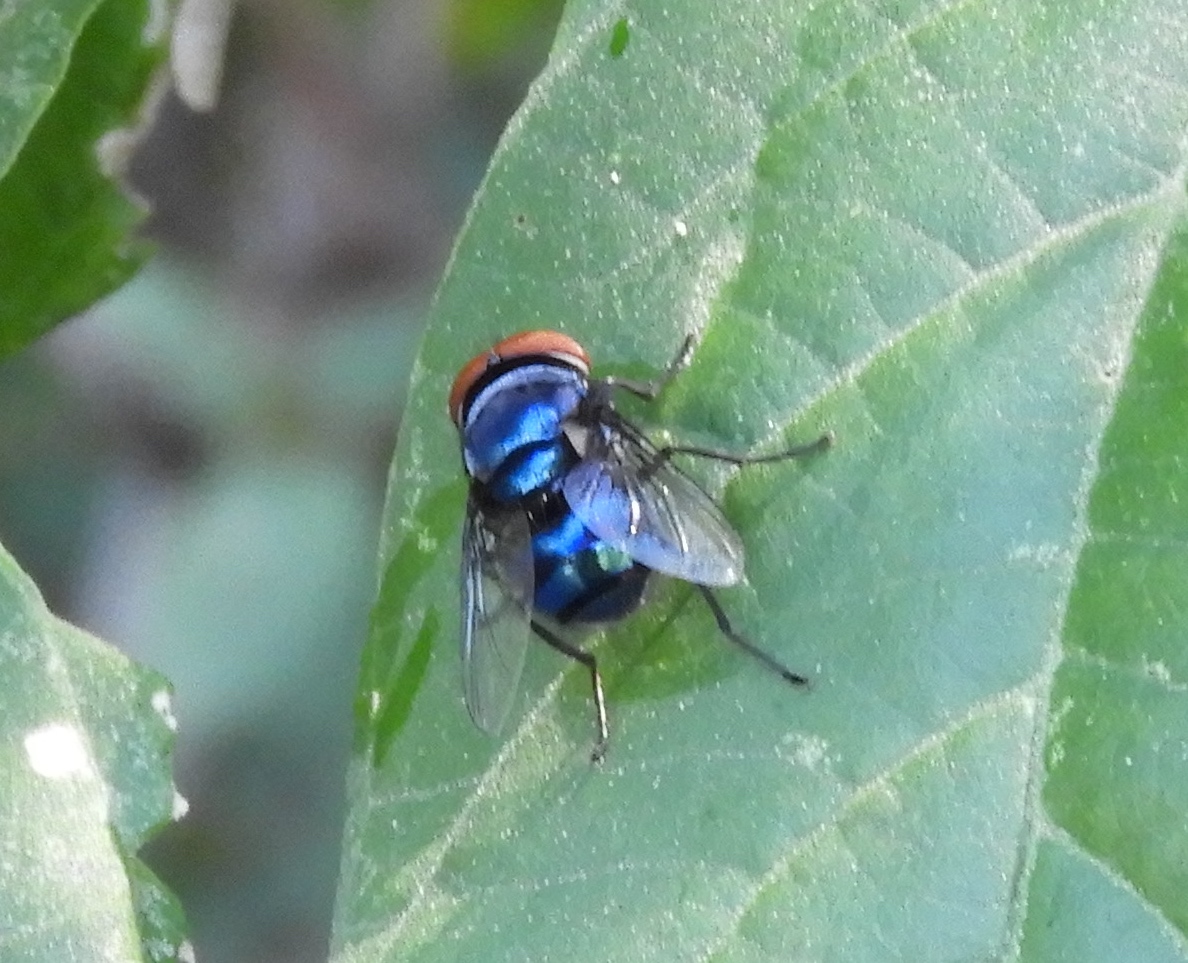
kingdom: Animalia
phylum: Arthropoda
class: Insecta
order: Diptera
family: Calliphoridae
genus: Chrysomya
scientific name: Chrysomya megacephala
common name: Blow fly
